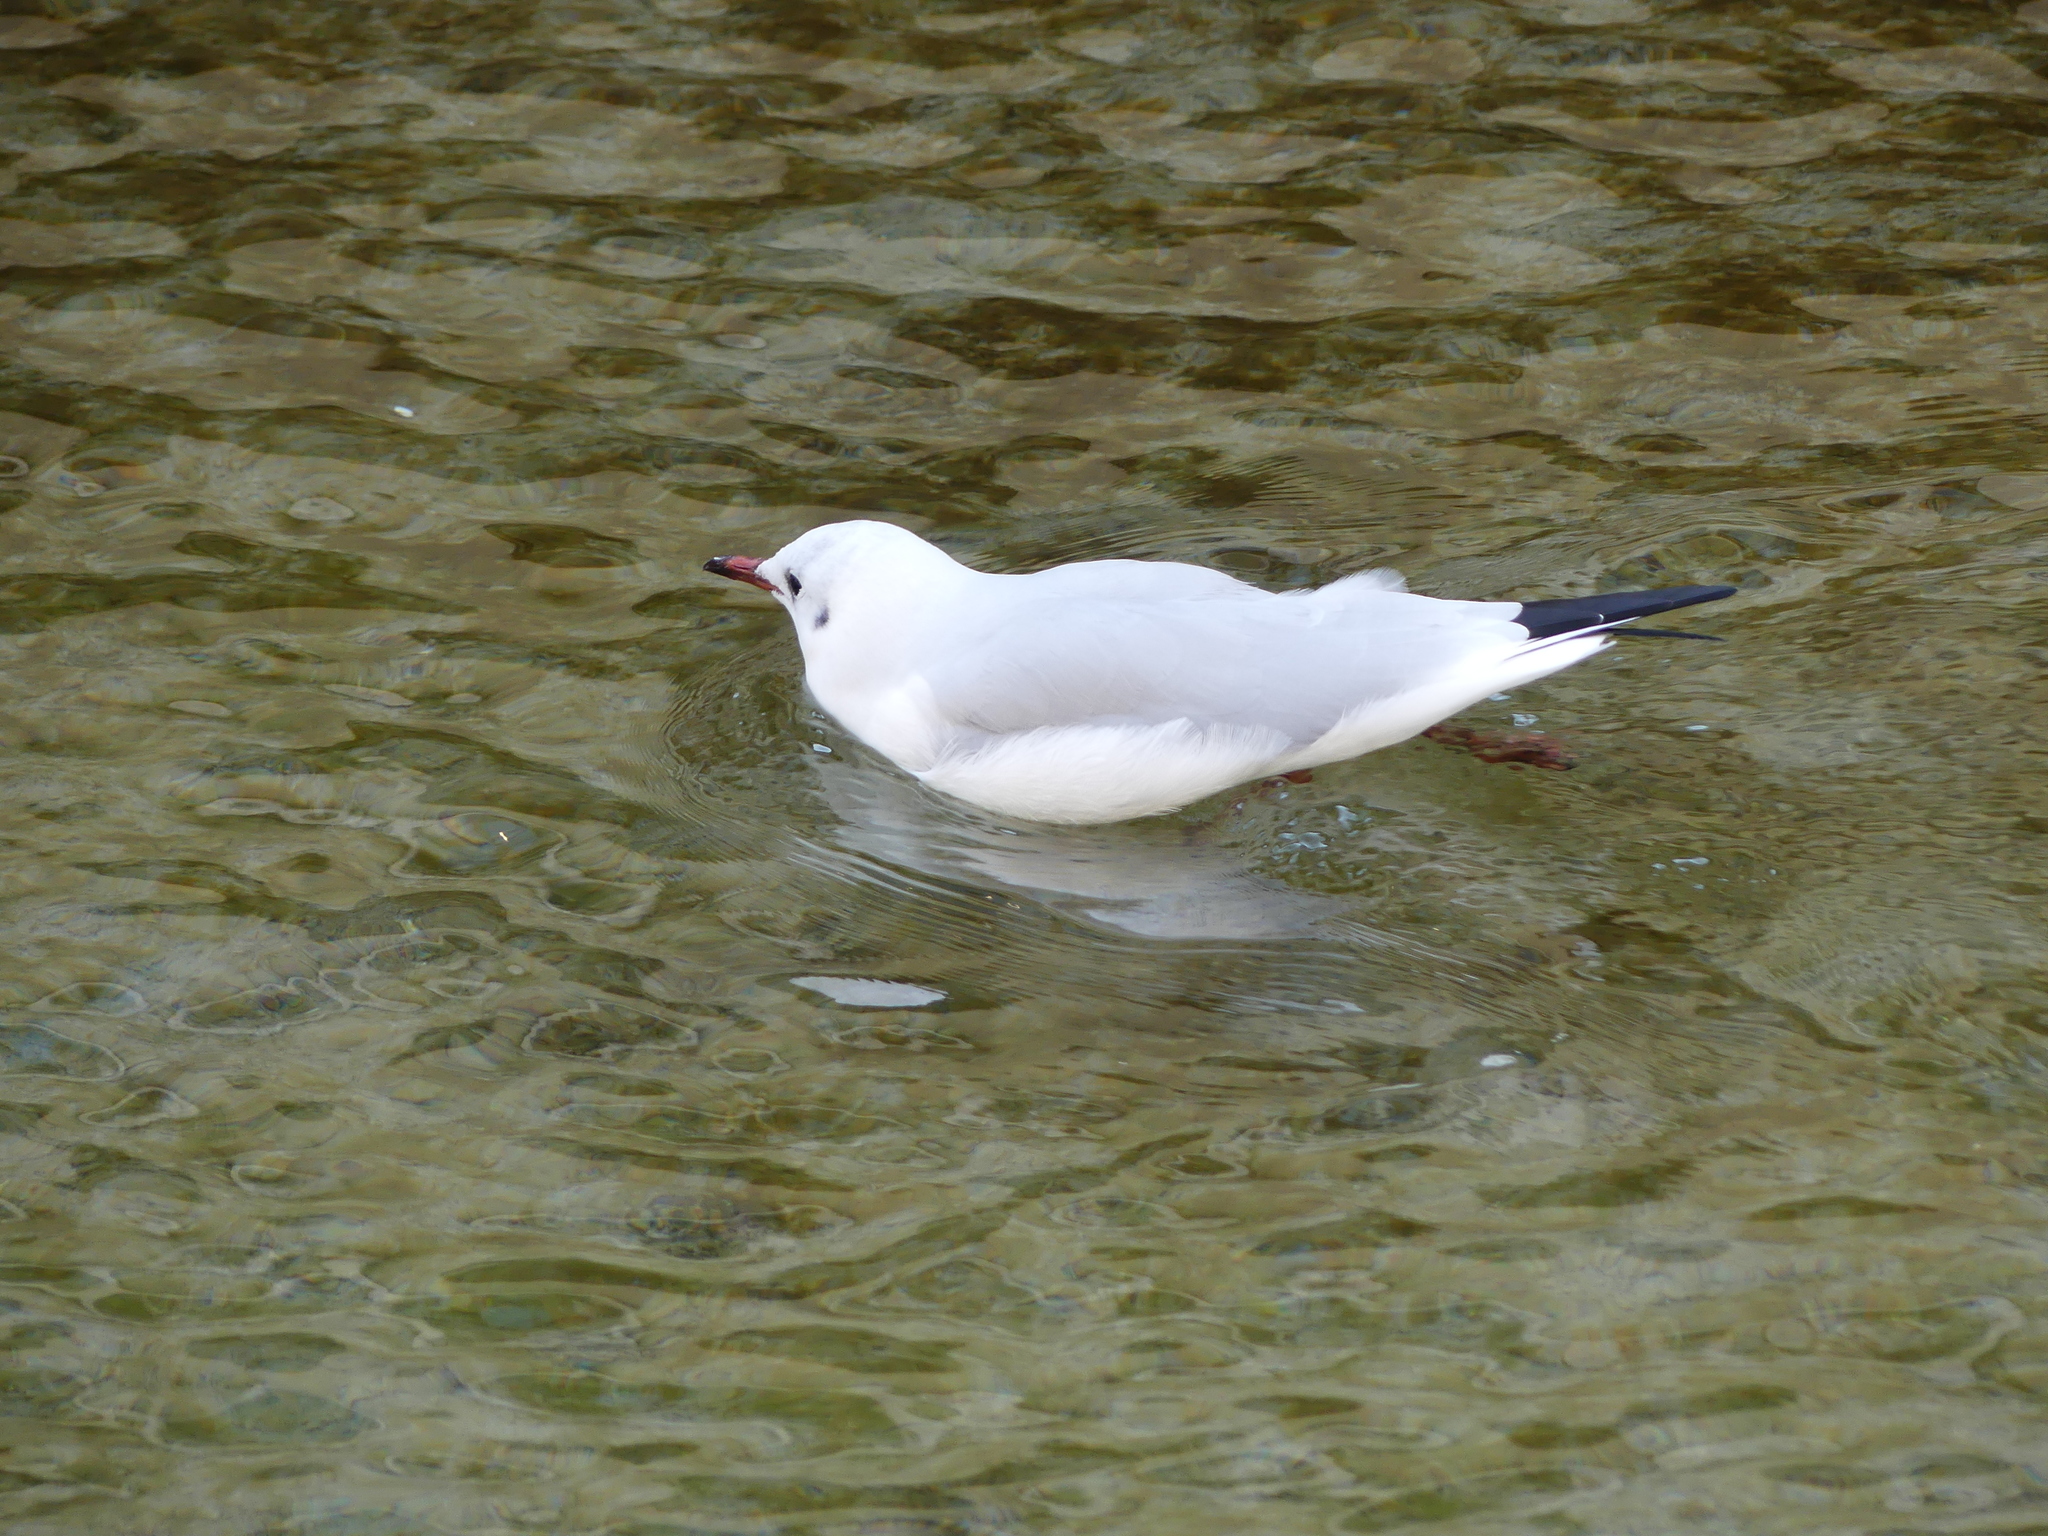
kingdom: Animalia
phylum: Chordata
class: Aves
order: Charadriiformes
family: Laridae
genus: Chroicocephalus
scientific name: Chroicocephalus ridibundus
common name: Black-headed gull
